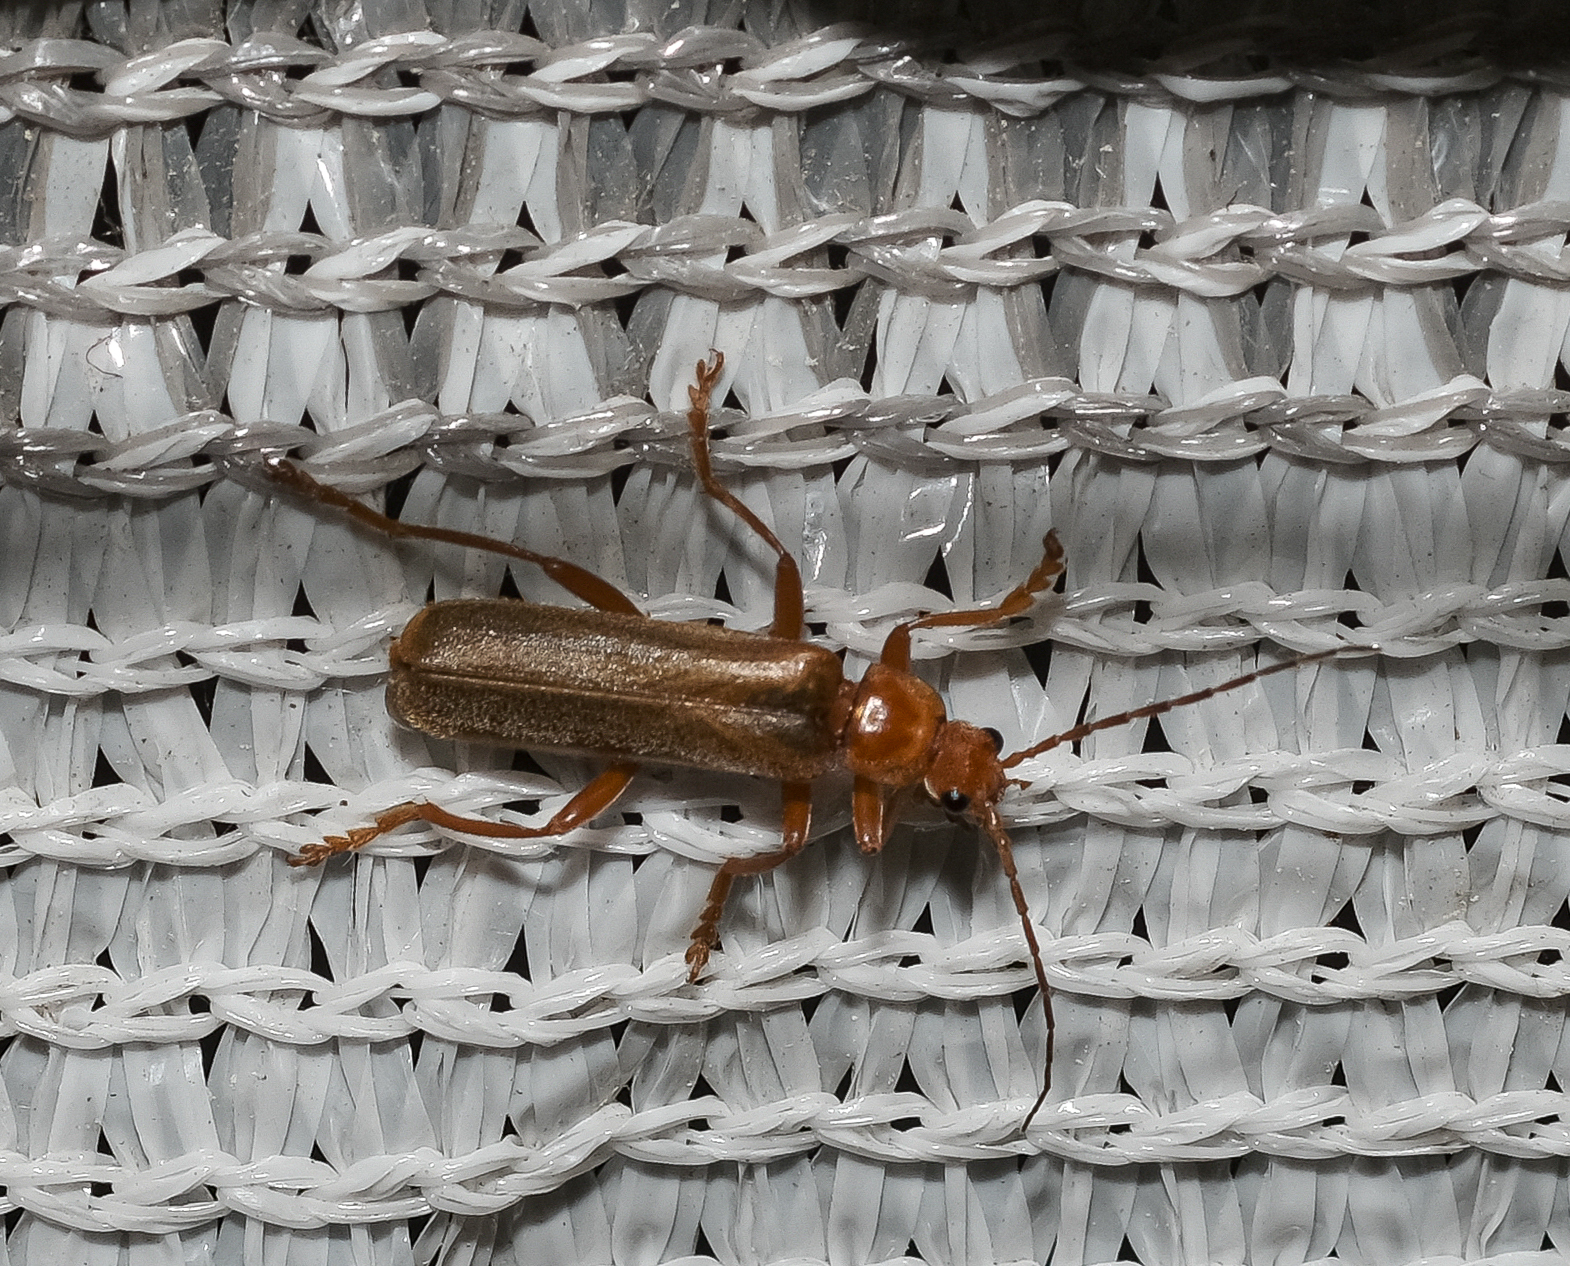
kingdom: Animalia
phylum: Arthropoda
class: Insecta
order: Coleoptera
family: Cantharidae
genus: Cantharis
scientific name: Cantharis rufa
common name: Red-spotted soldier beetle
